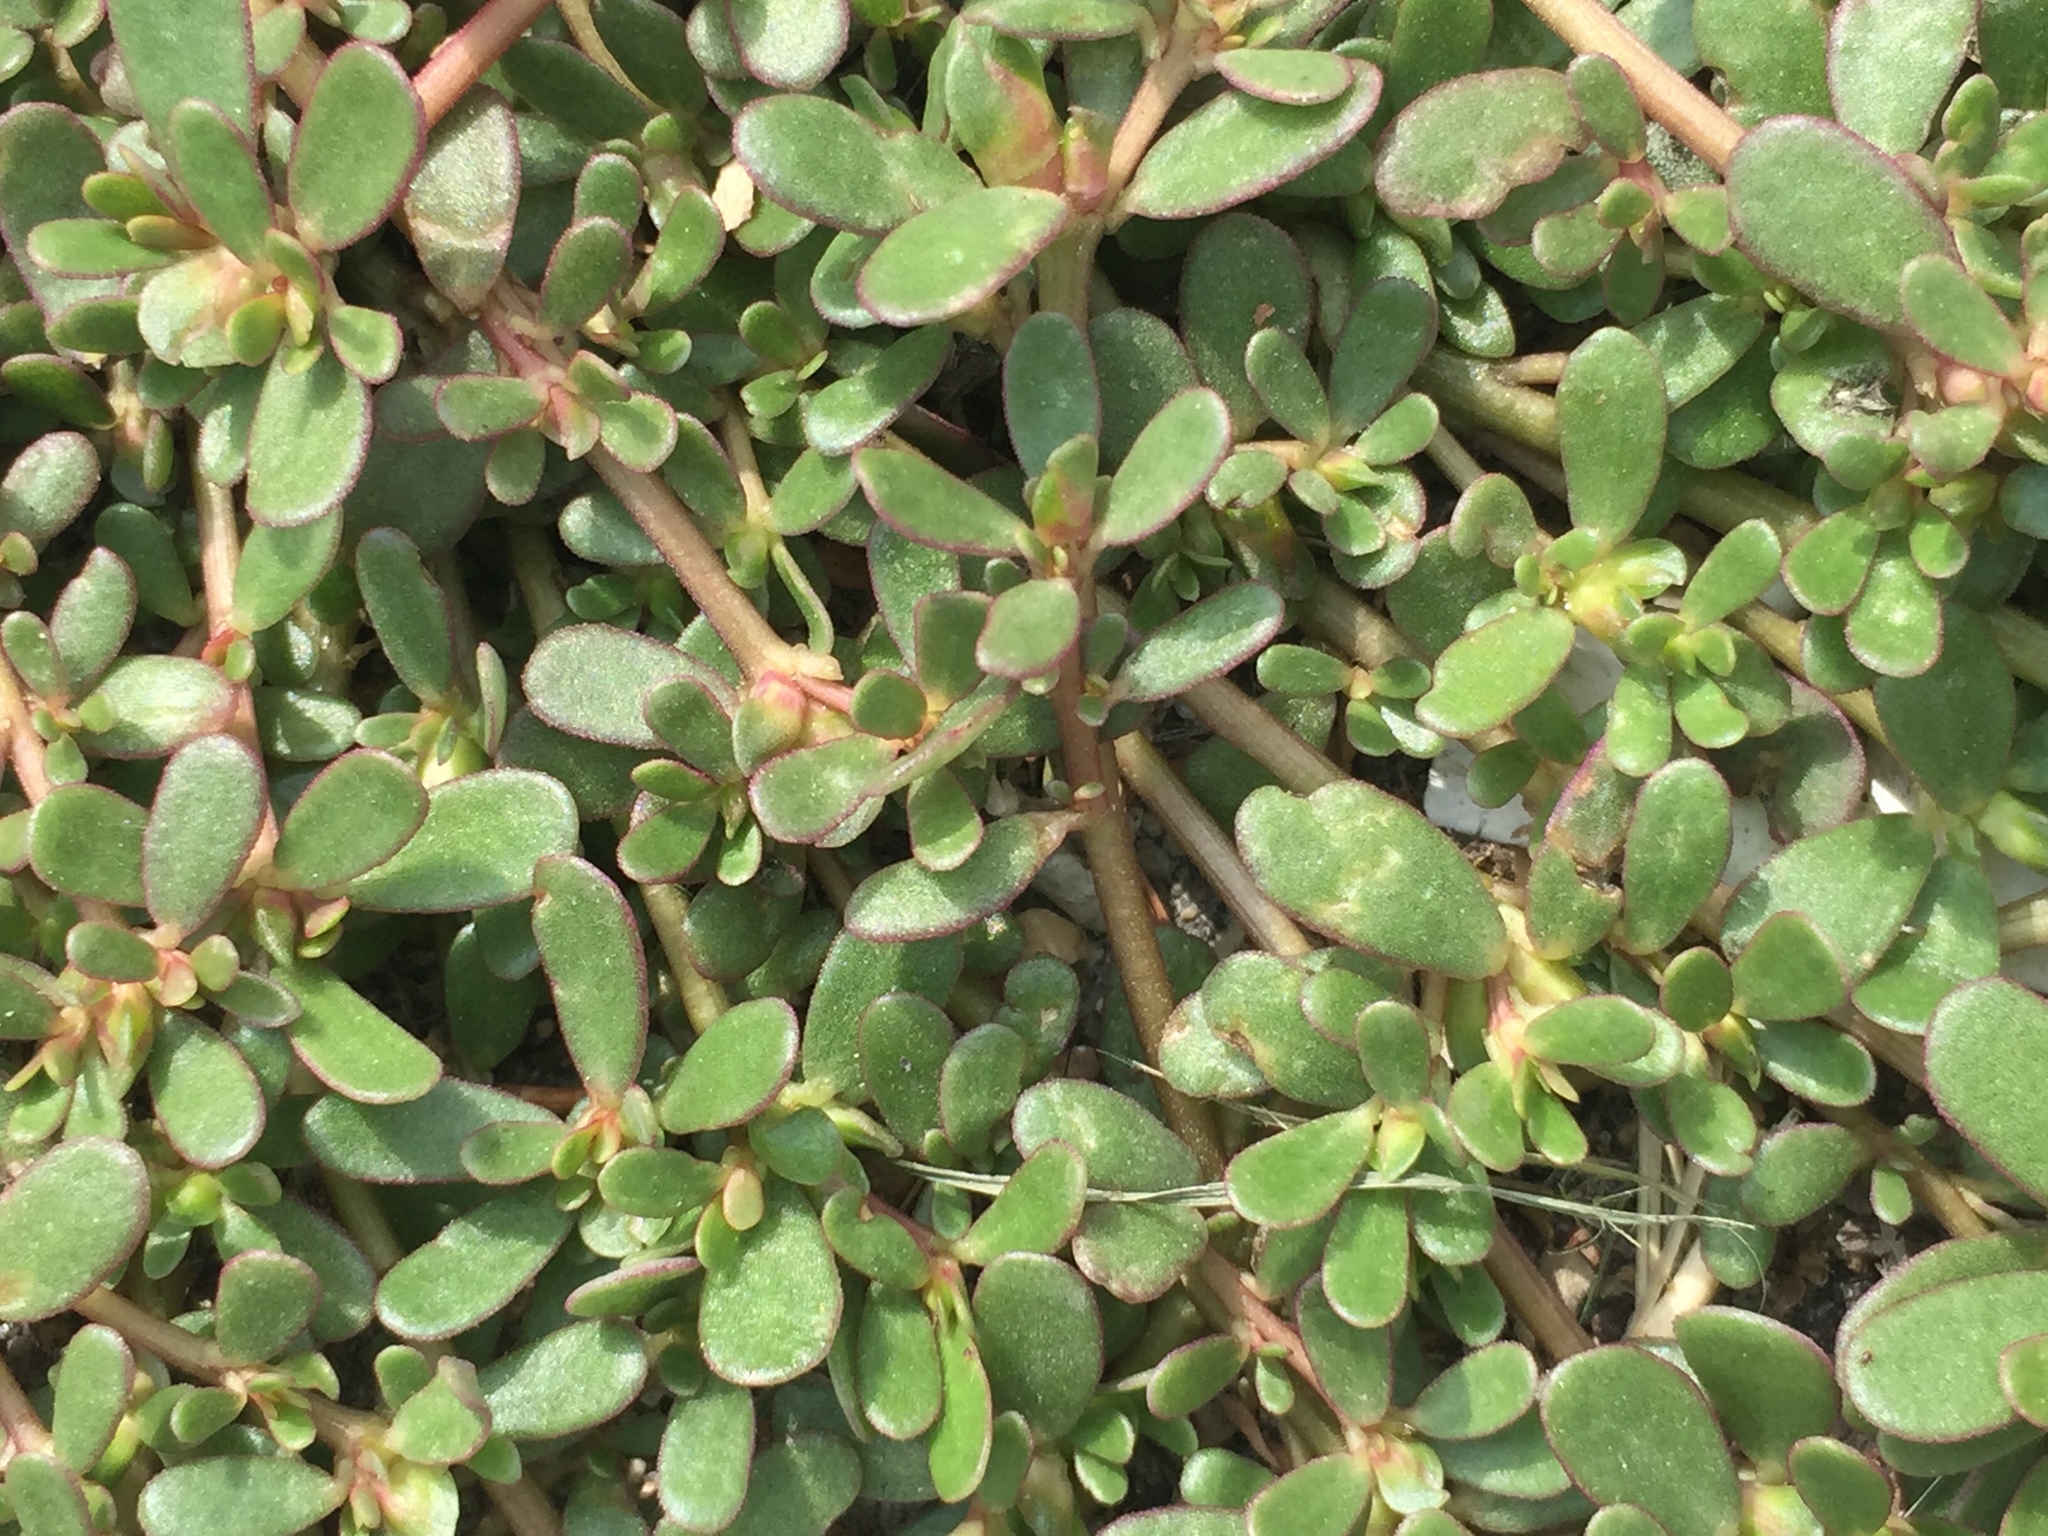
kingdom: Plantae
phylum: Tracheophyta
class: Magnoliopsida
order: Caryophyllales
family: Portulacaceae
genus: Portulaca
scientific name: Portulaca oleracea
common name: Common purslane
